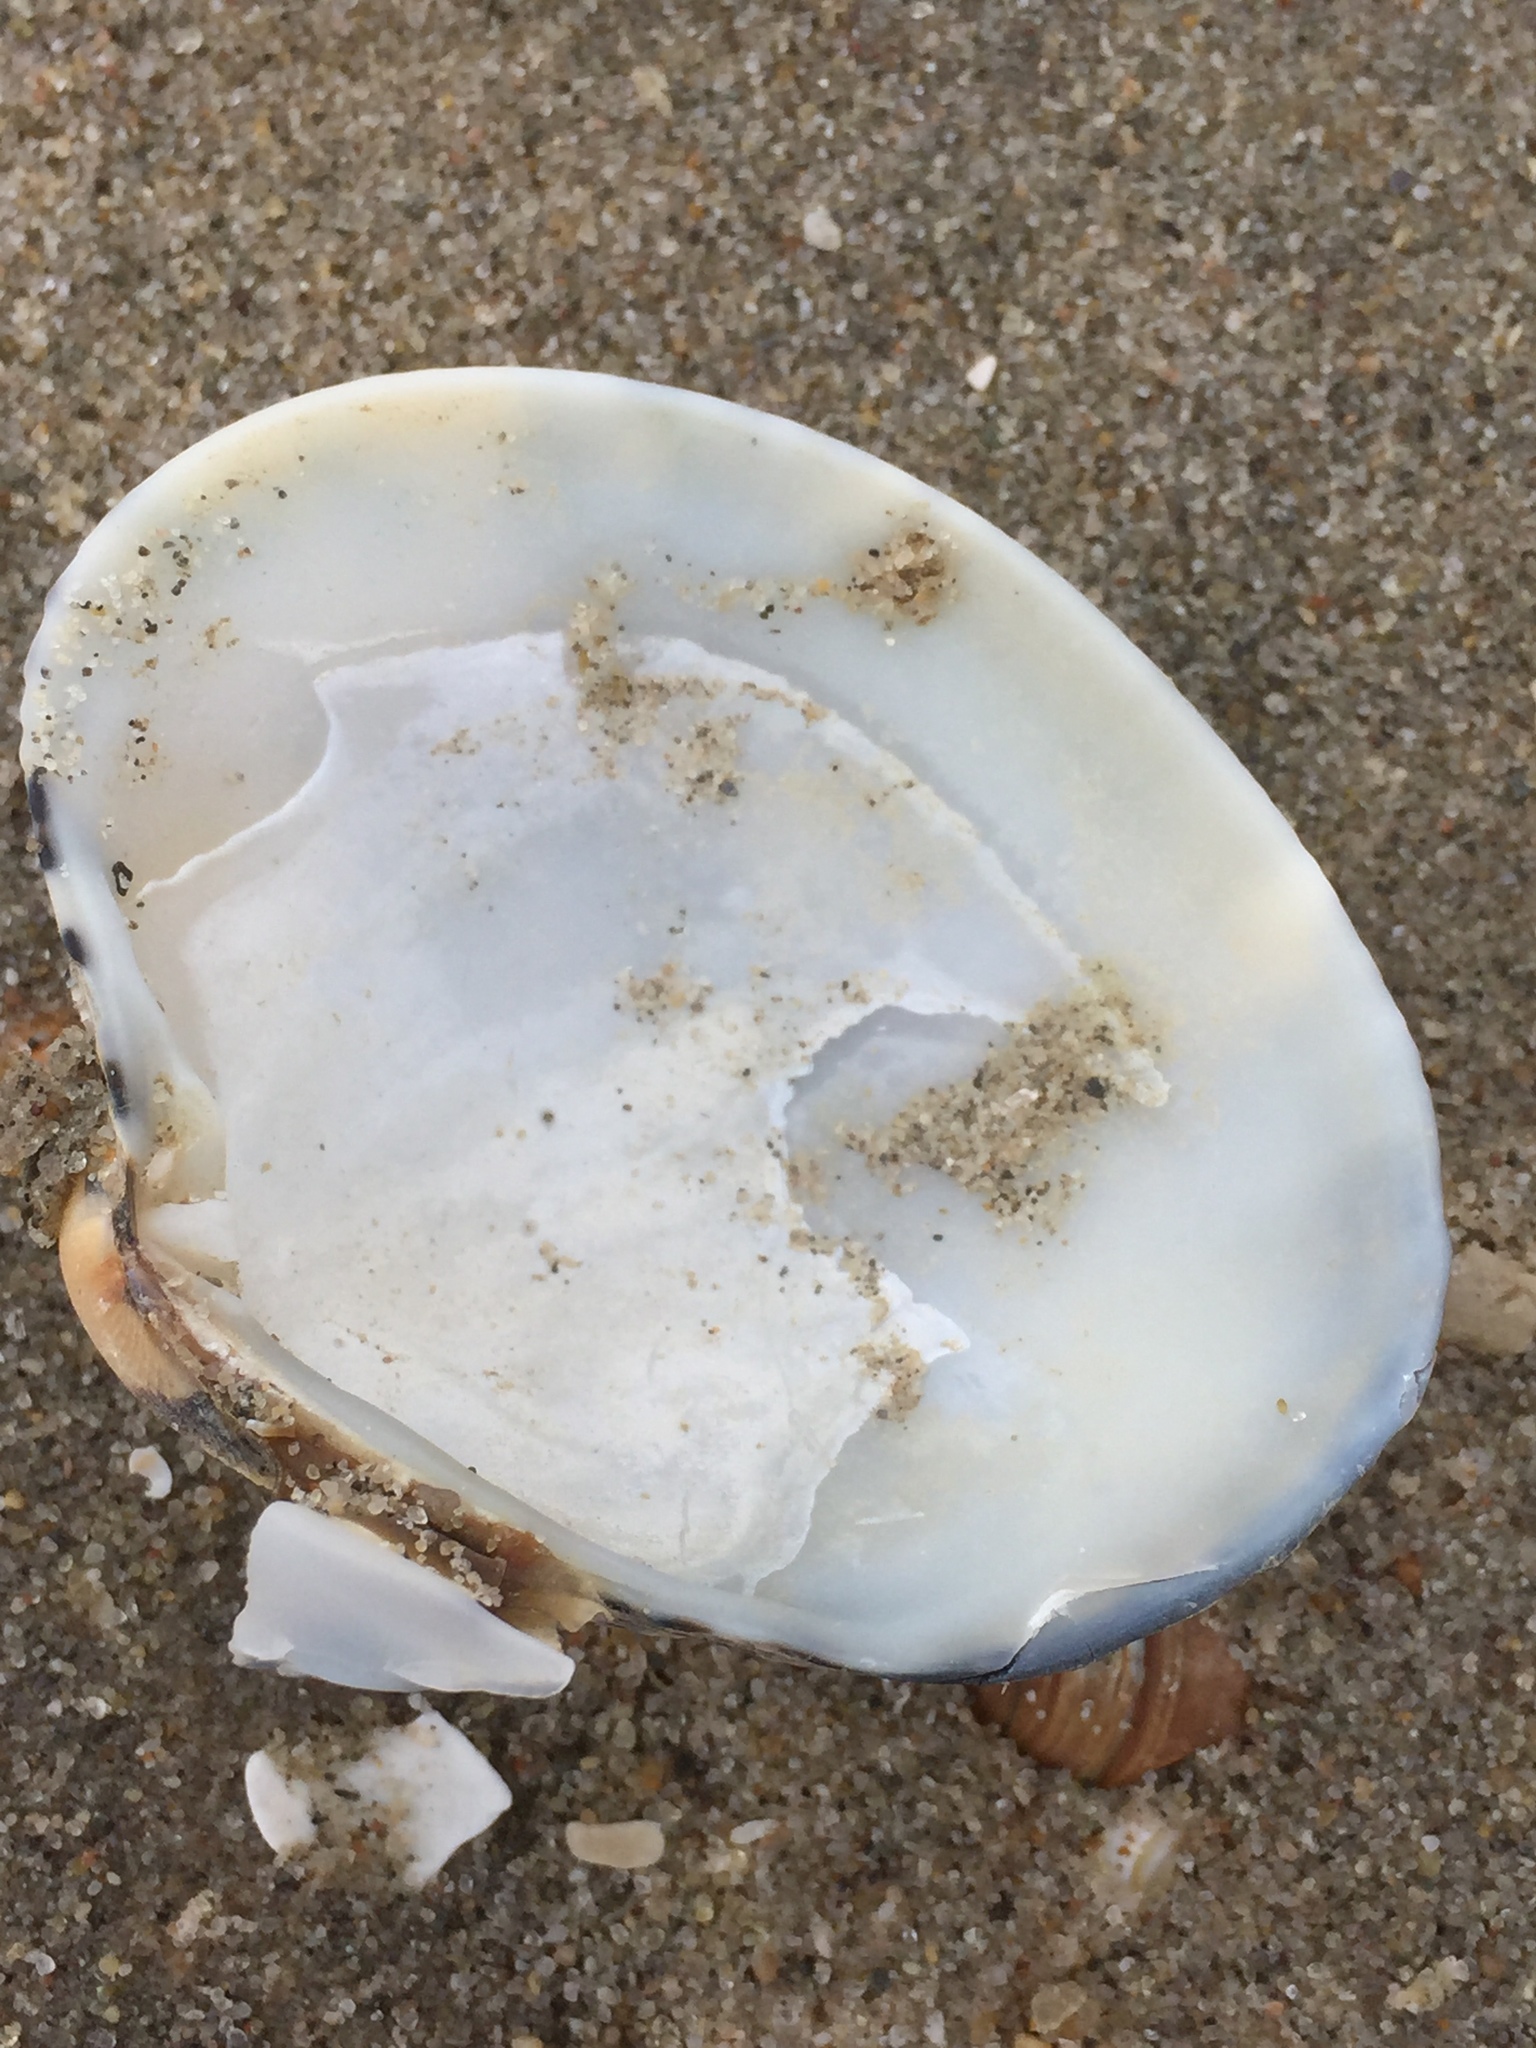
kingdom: Animalia
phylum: Mollusca
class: Bivalvia
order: Venerida
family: Veneridae
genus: Ruditapes
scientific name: Ruditapes philippinarum
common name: Manila clam
